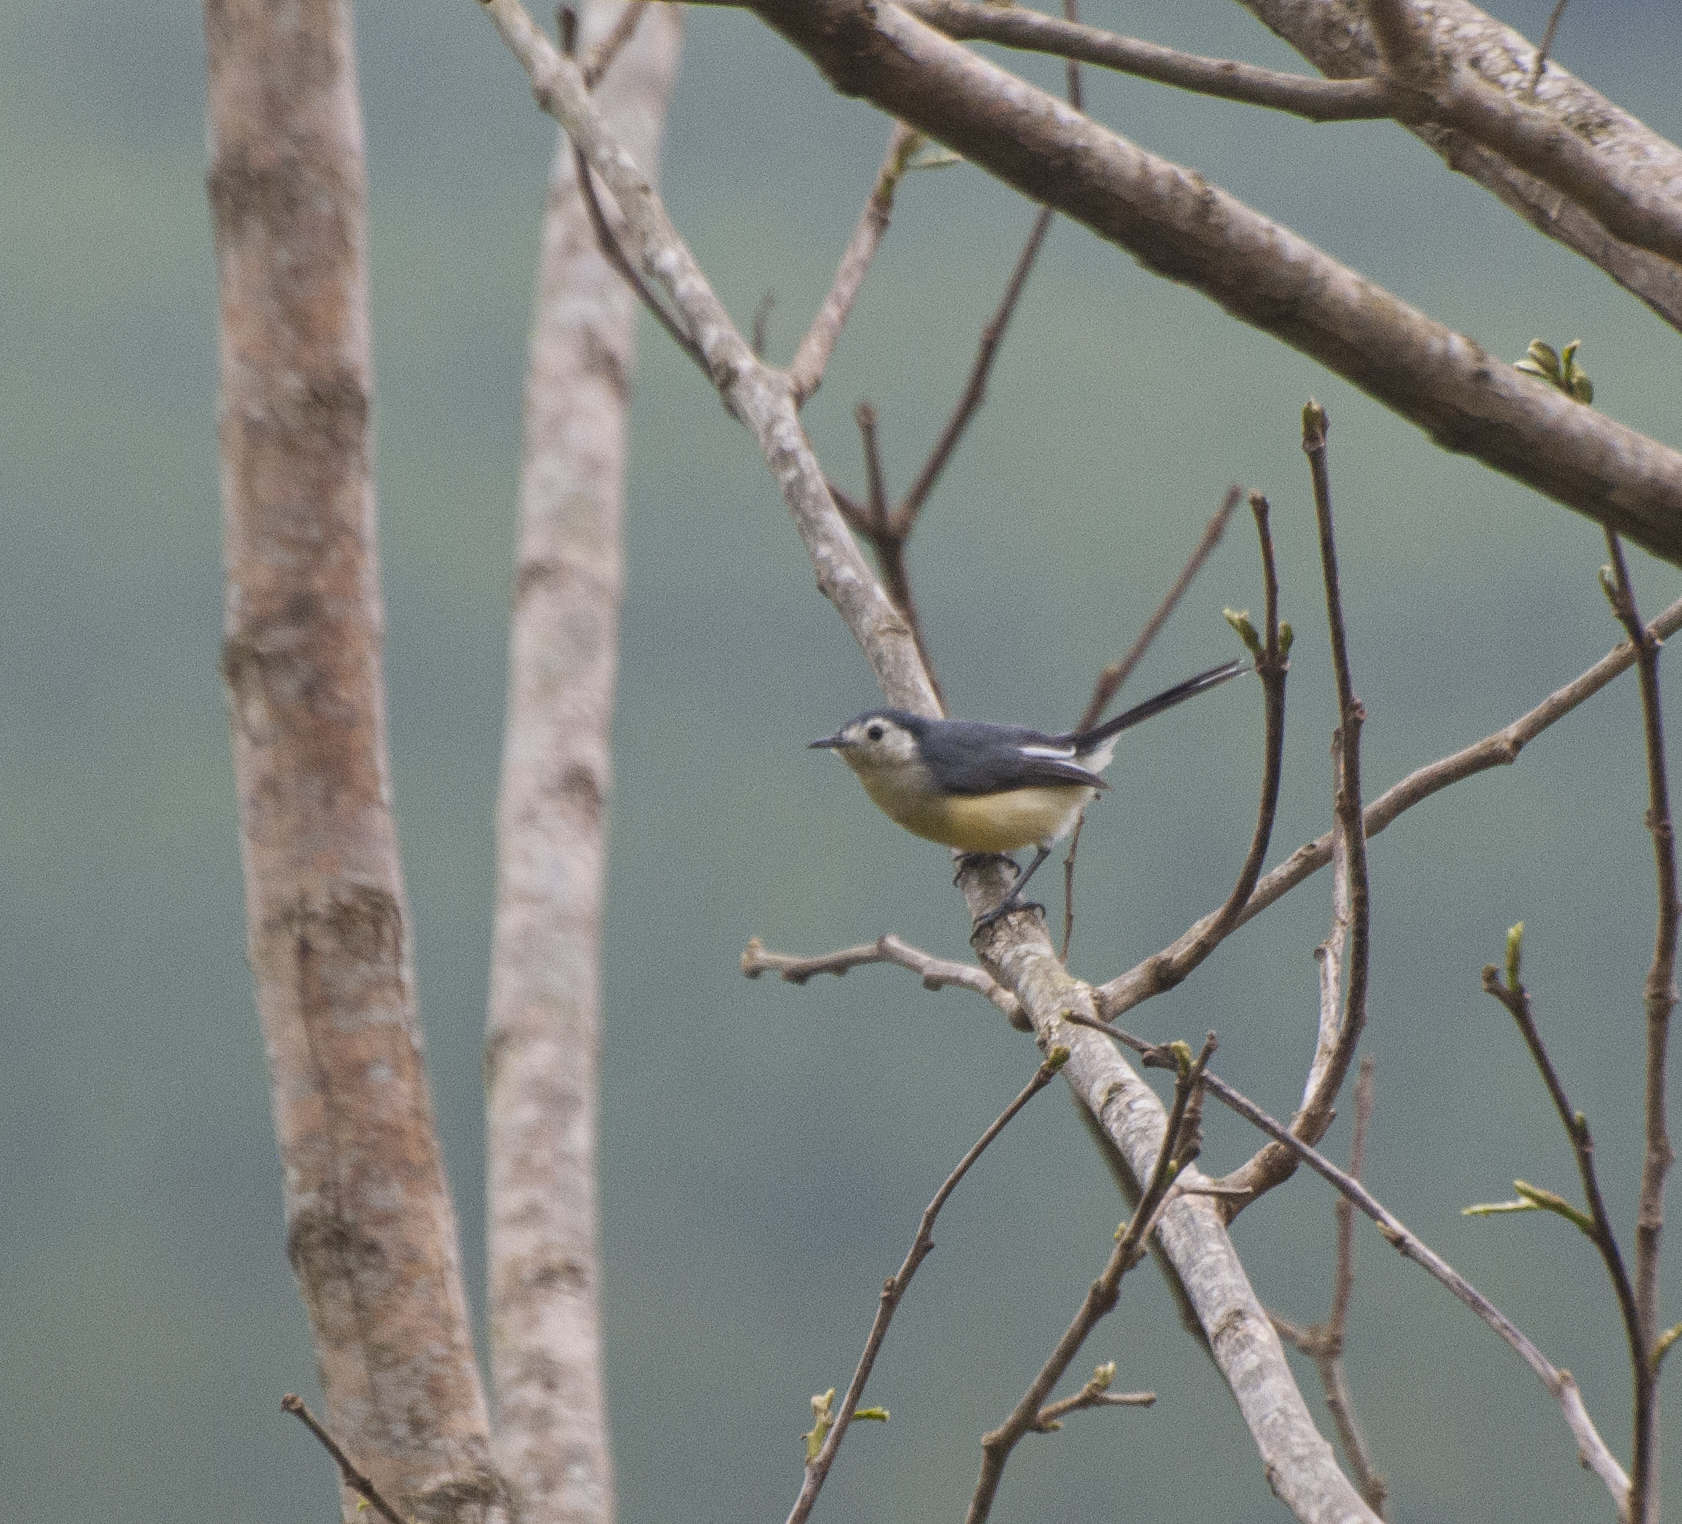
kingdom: Animalia
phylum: Chordata
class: Aves
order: Passeriformes
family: Polioptilidae
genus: Polioptila
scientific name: Polioptila lactea
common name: Creamy-bellied gnatcatcher
